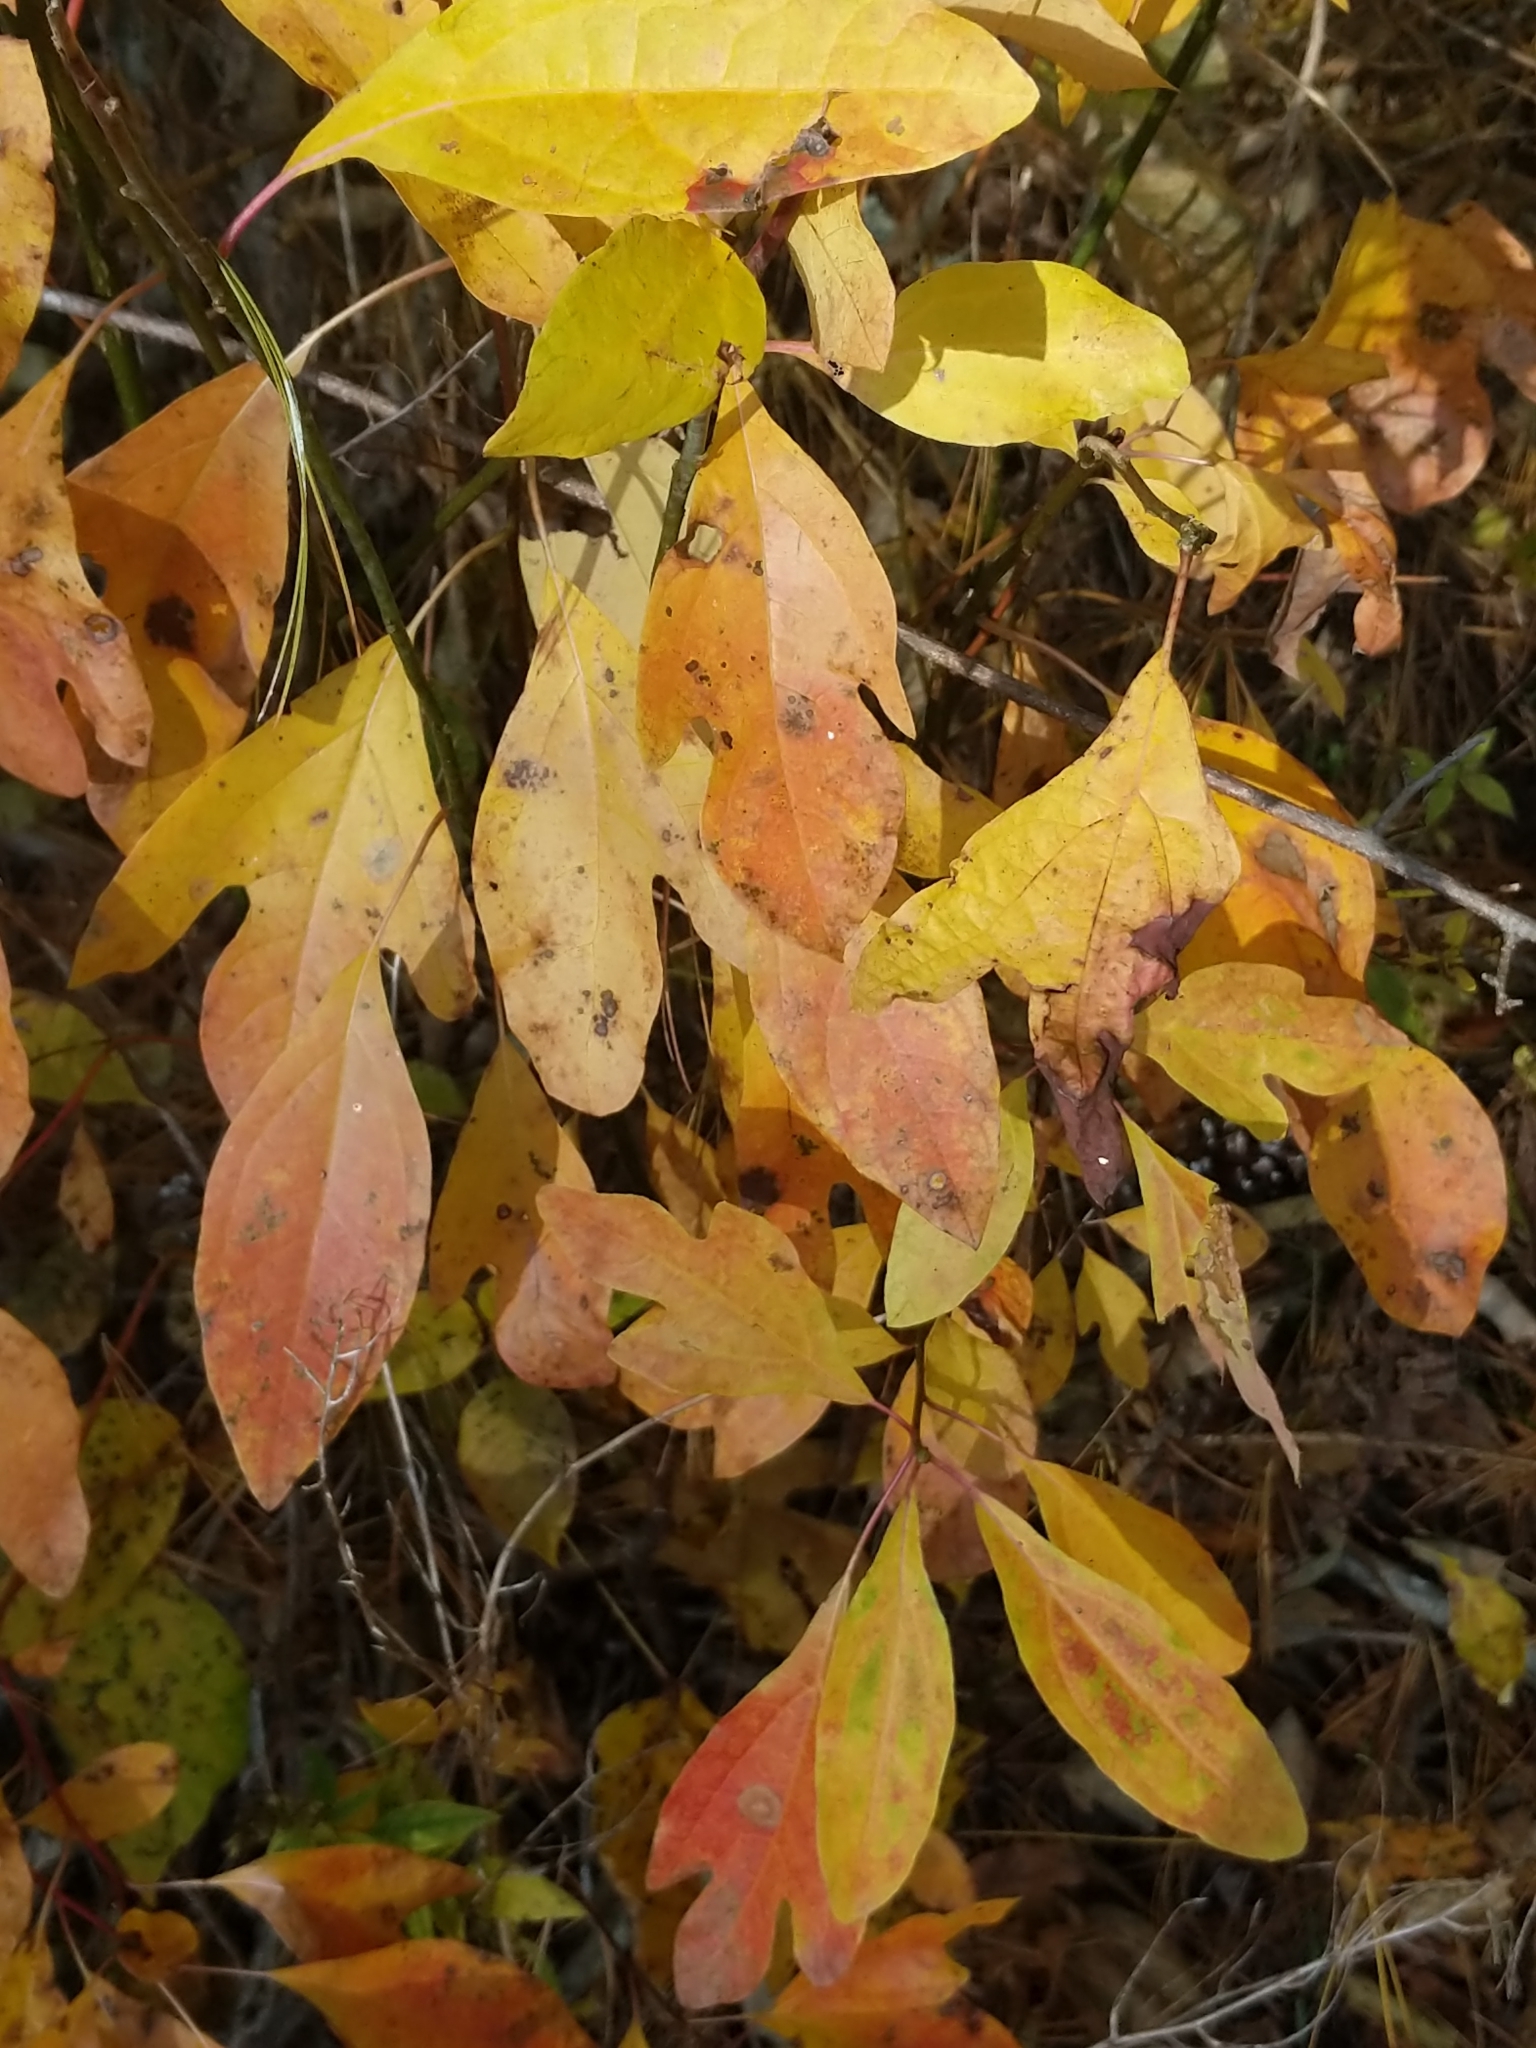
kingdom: Plantae
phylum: Tracheophyta
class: Magnoliopsida
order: Laurales
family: Lauraceae
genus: Sassafras
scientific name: Sassafras albidum
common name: Sassafras
